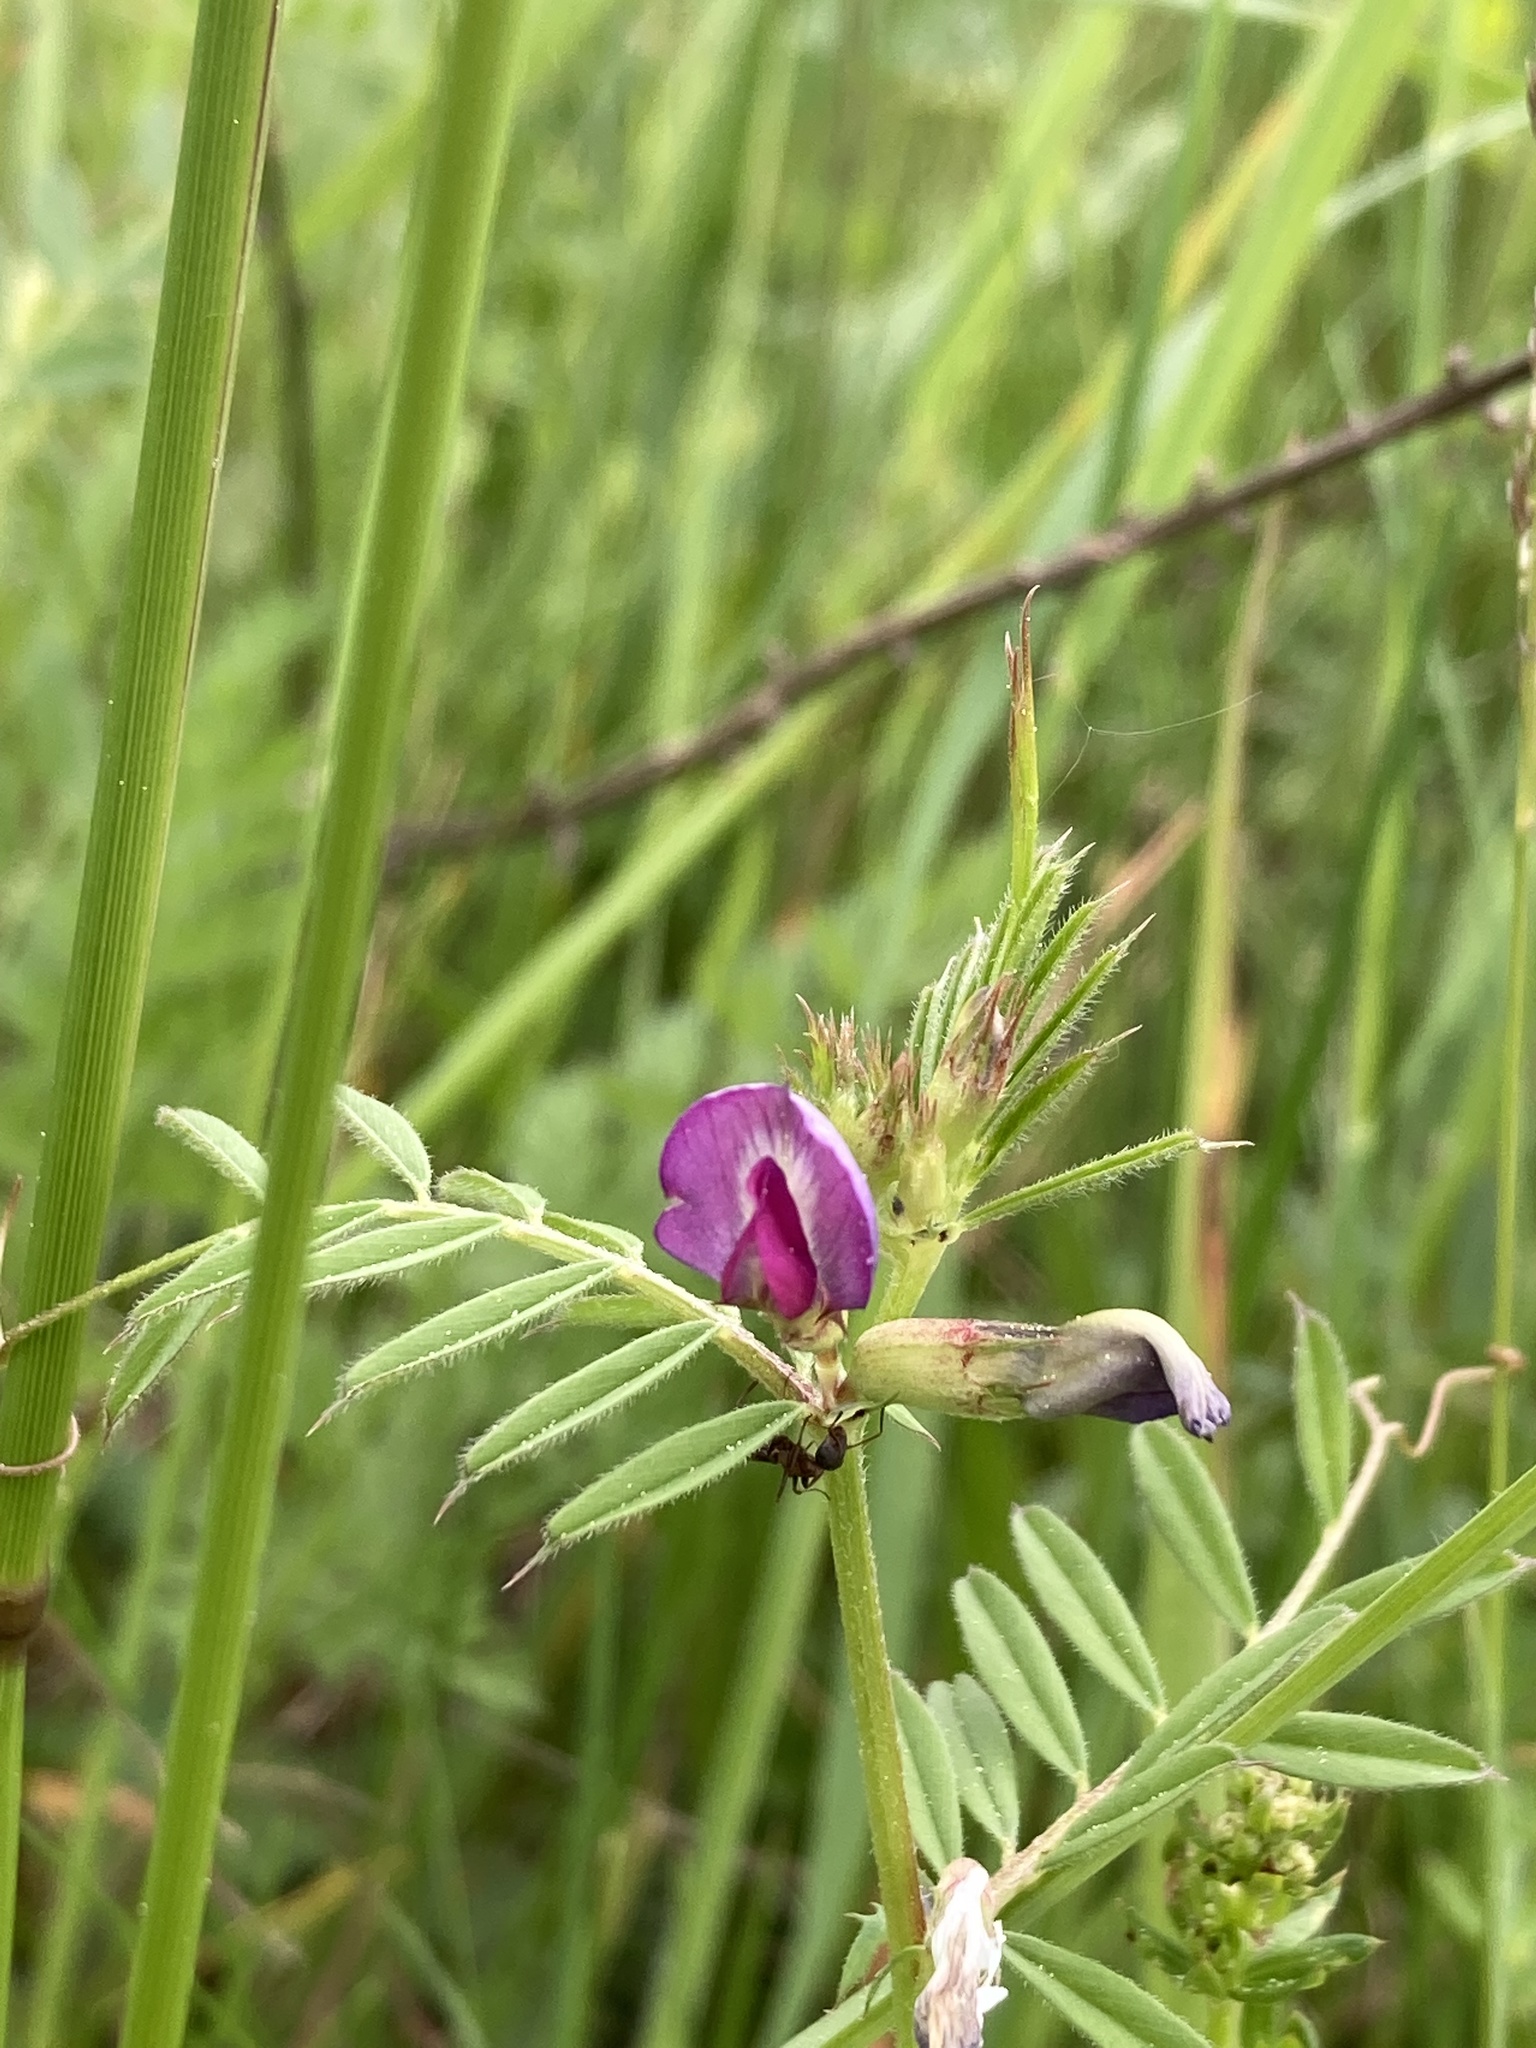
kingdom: Plantae
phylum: Tracheophyta
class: Magnoliopsida
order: Fabales
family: Fabaceae
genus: Vicia
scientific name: Vicia sativa
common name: Garden vetch
